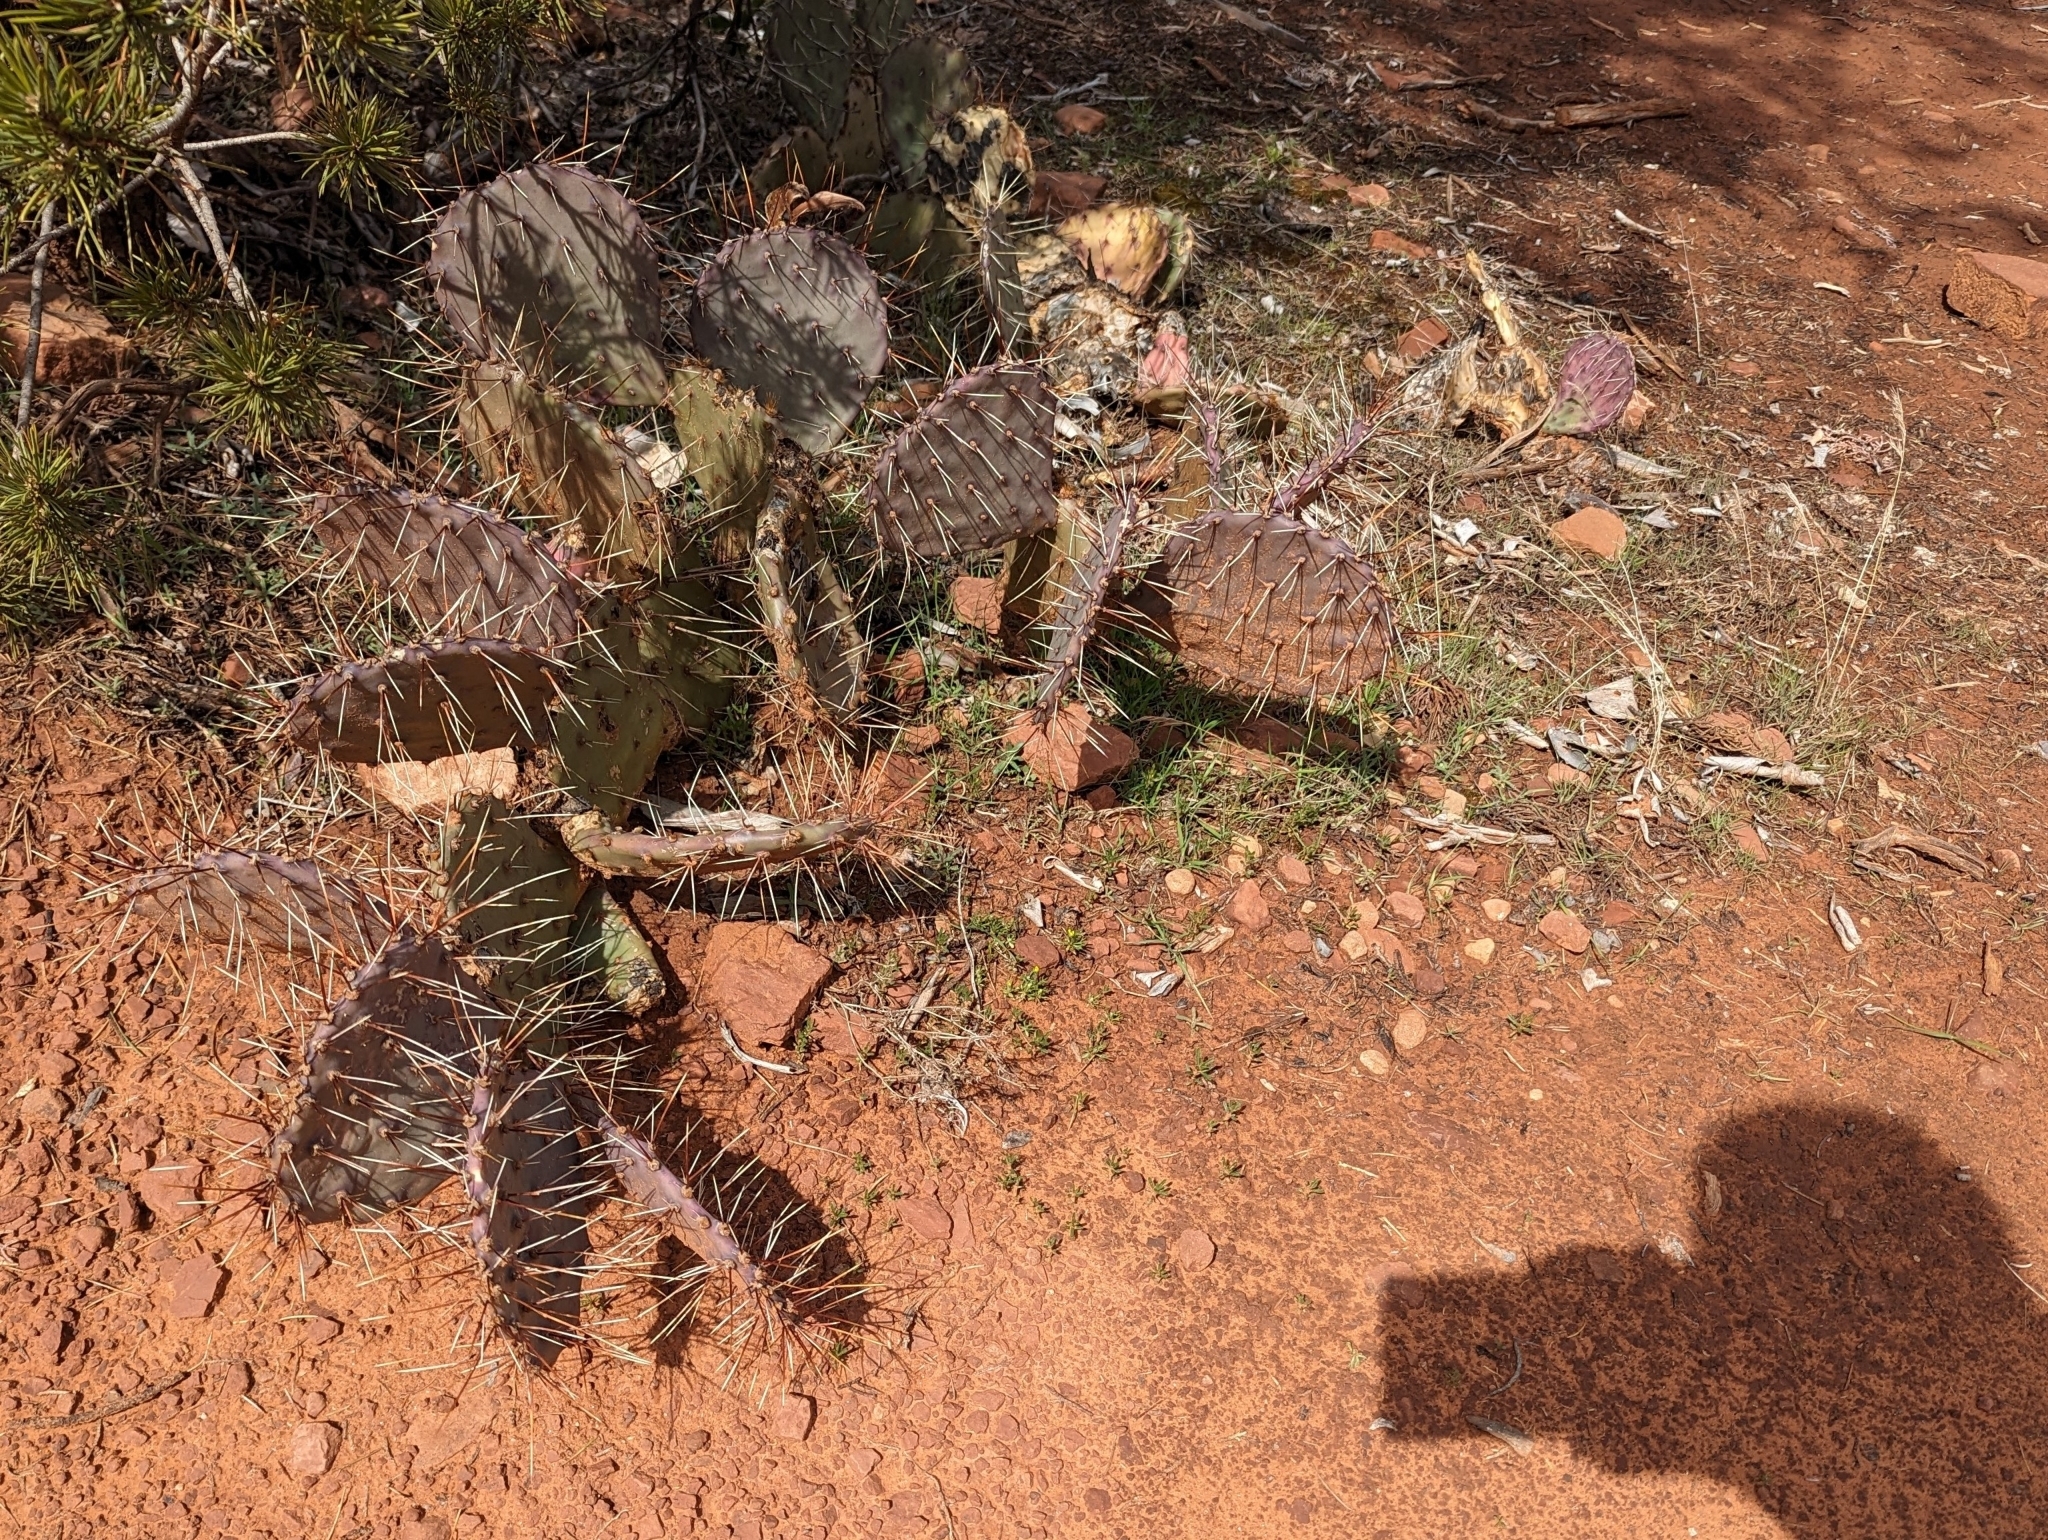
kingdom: Plantae
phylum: Tracheophyta
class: Magnoliopsida
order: Caryophyllales
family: Cactaceae
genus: Opuntia
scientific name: Opuntia phaeacantha
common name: New mexico prickly-pear
